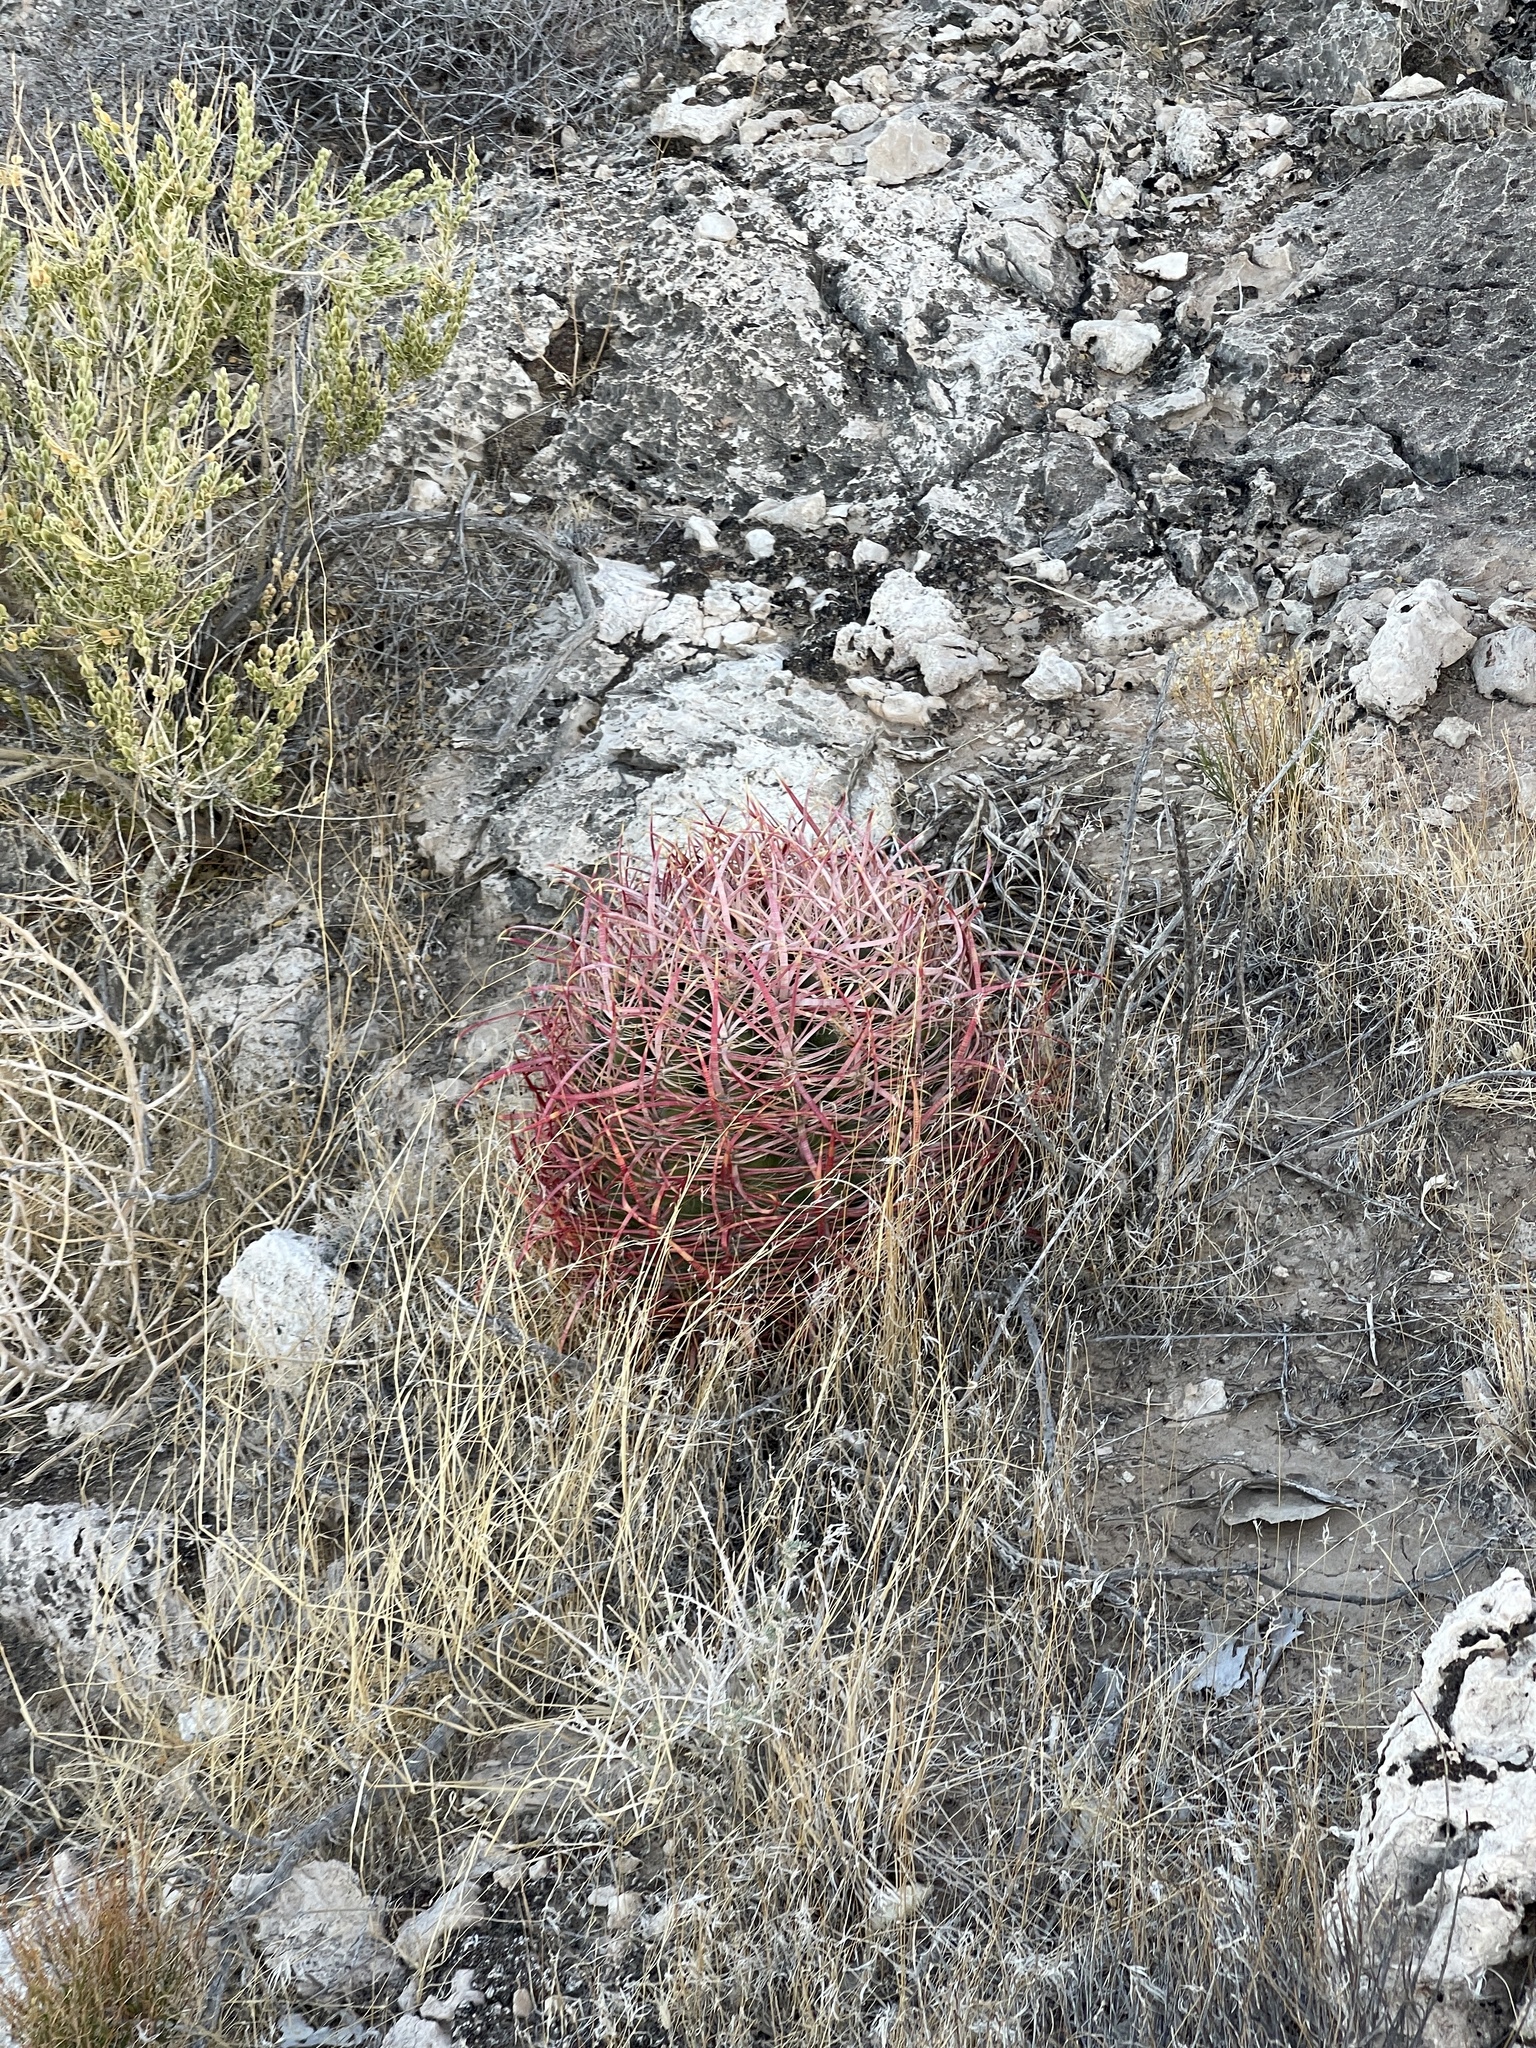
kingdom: Plantae
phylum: Tracheophyta
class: Magnoliopsida
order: Caryophyllales
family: Cactaceae
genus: Ferocactus
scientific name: Ferocactus cylindraceus
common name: California barrel cactus
